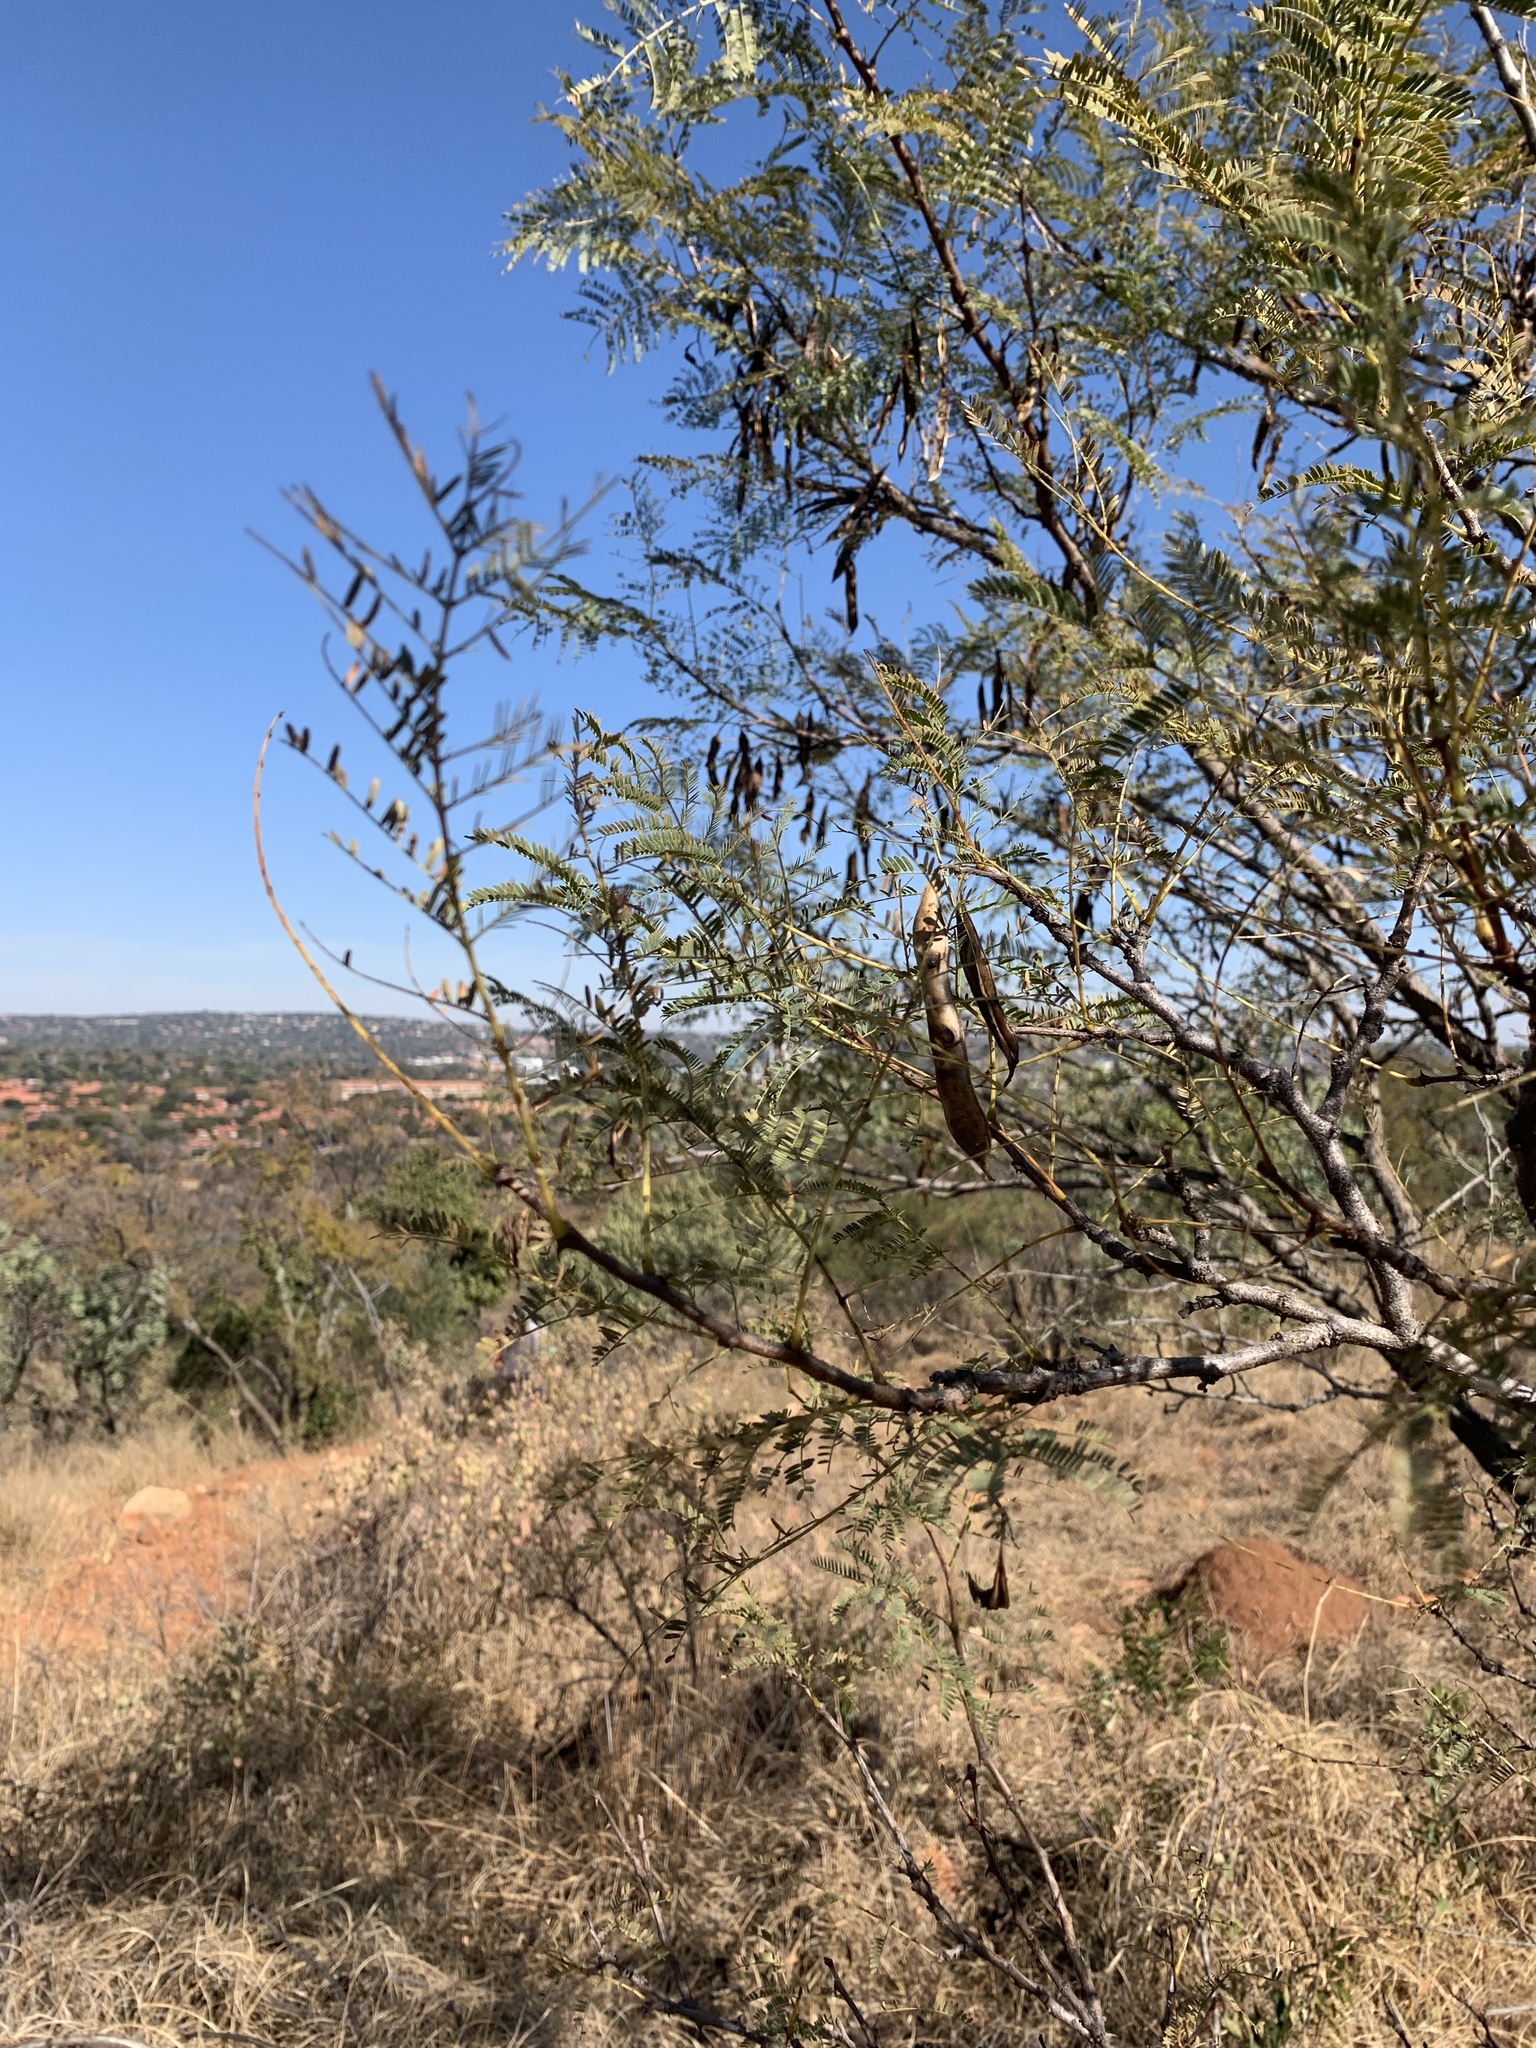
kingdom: Plantae
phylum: Tracheophyta
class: Magnoliopsida
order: Fabales
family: Fabaceae
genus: Senegalia
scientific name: Senegalia caffra
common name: Cat thorn
